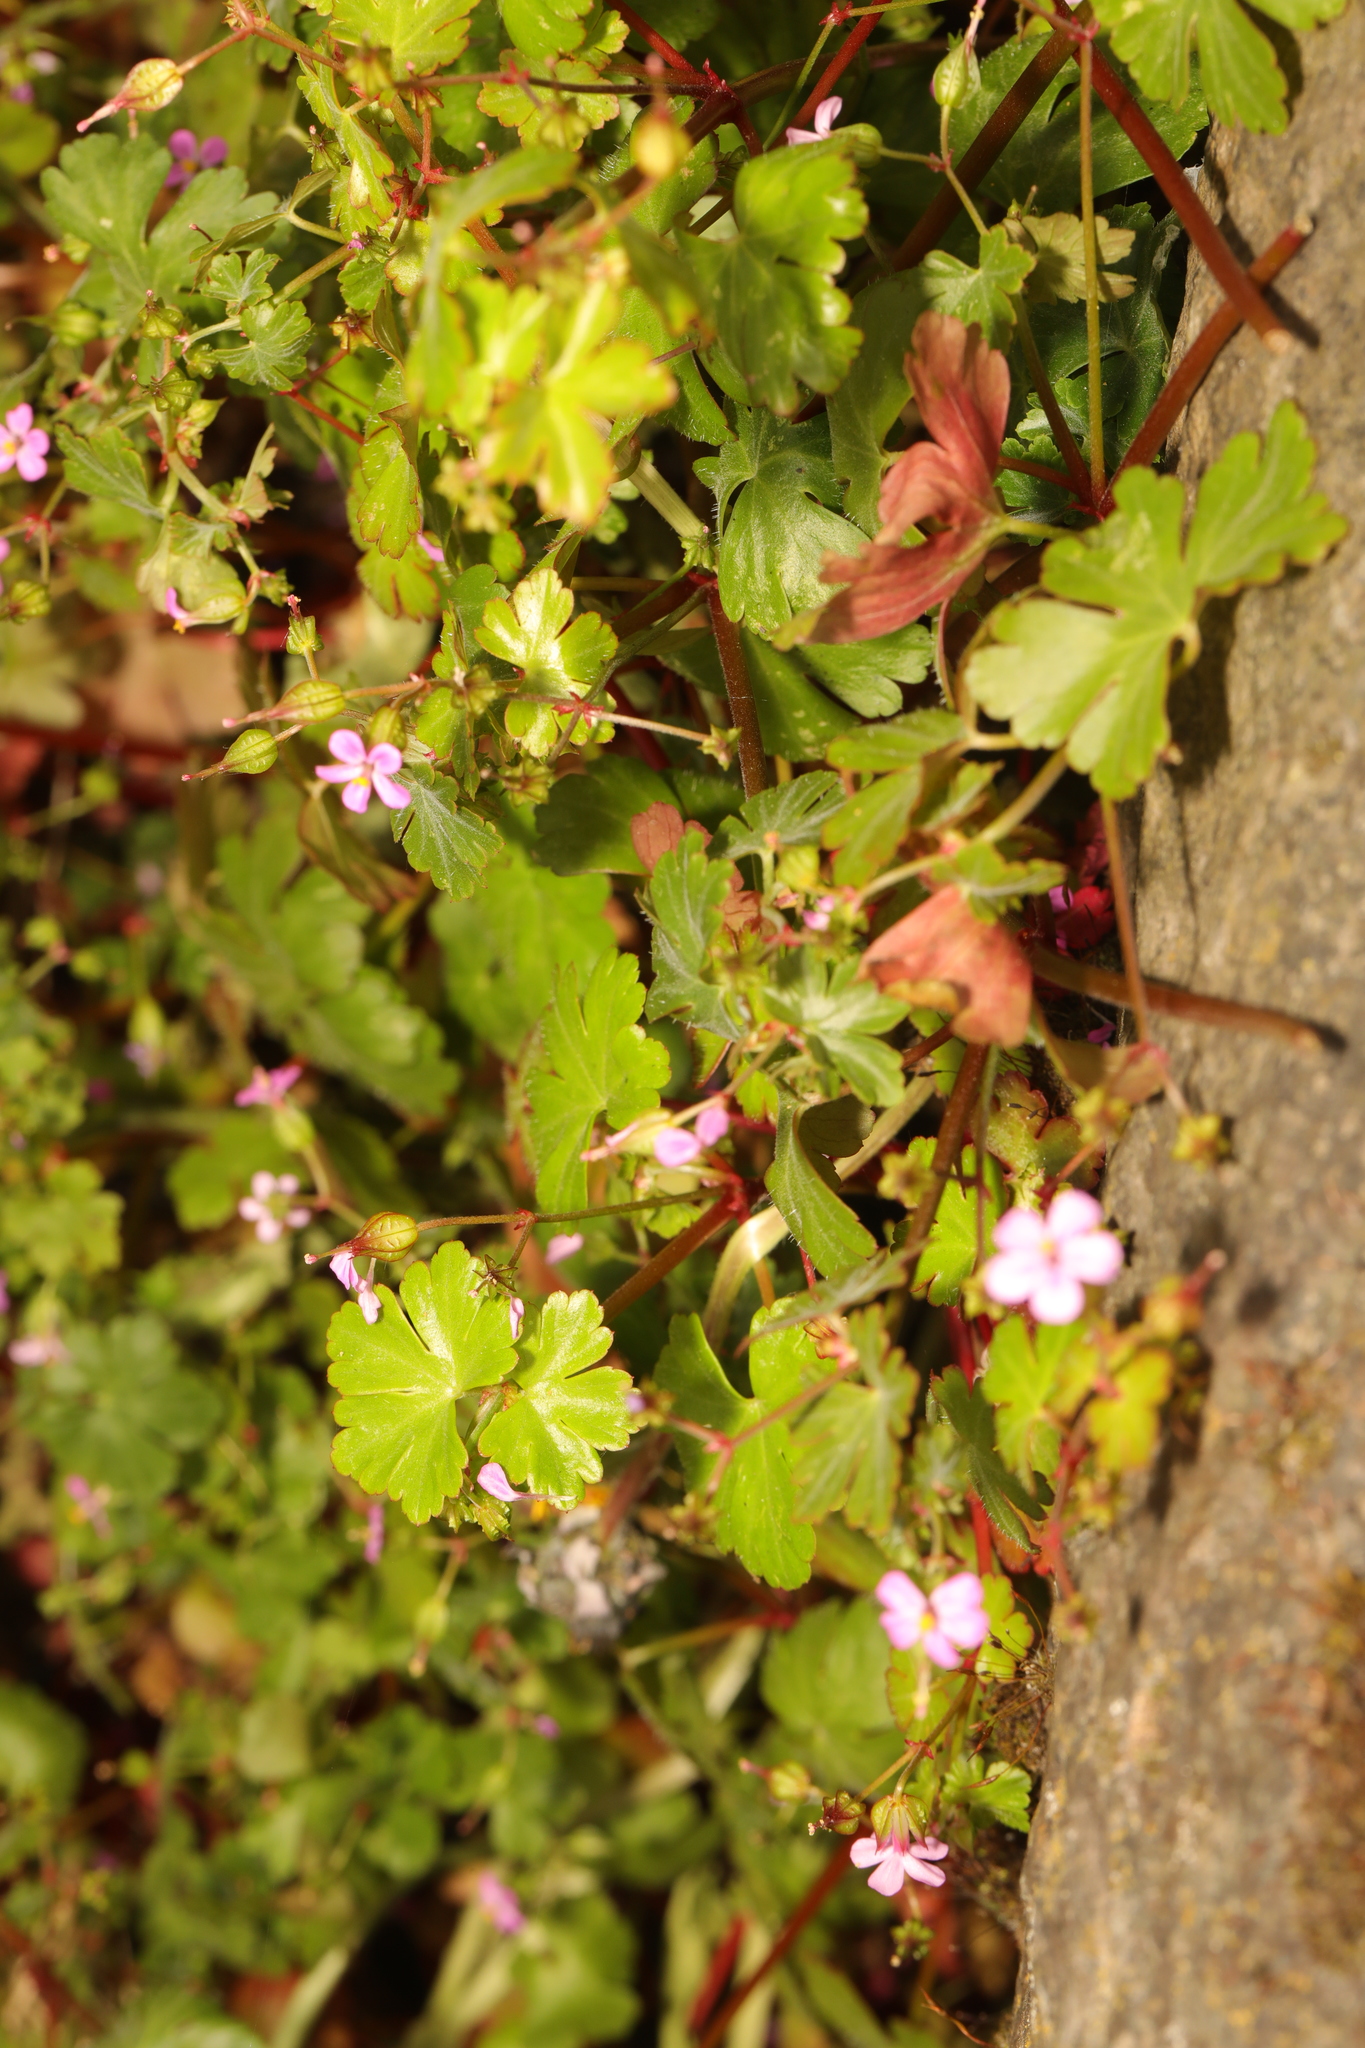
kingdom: Plantae
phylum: Tracheophyta
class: Magnoliopsida
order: Geraniales
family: Geraniaceae
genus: Geranium
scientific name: Geranium lucidum
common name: Shining crane's-bill
